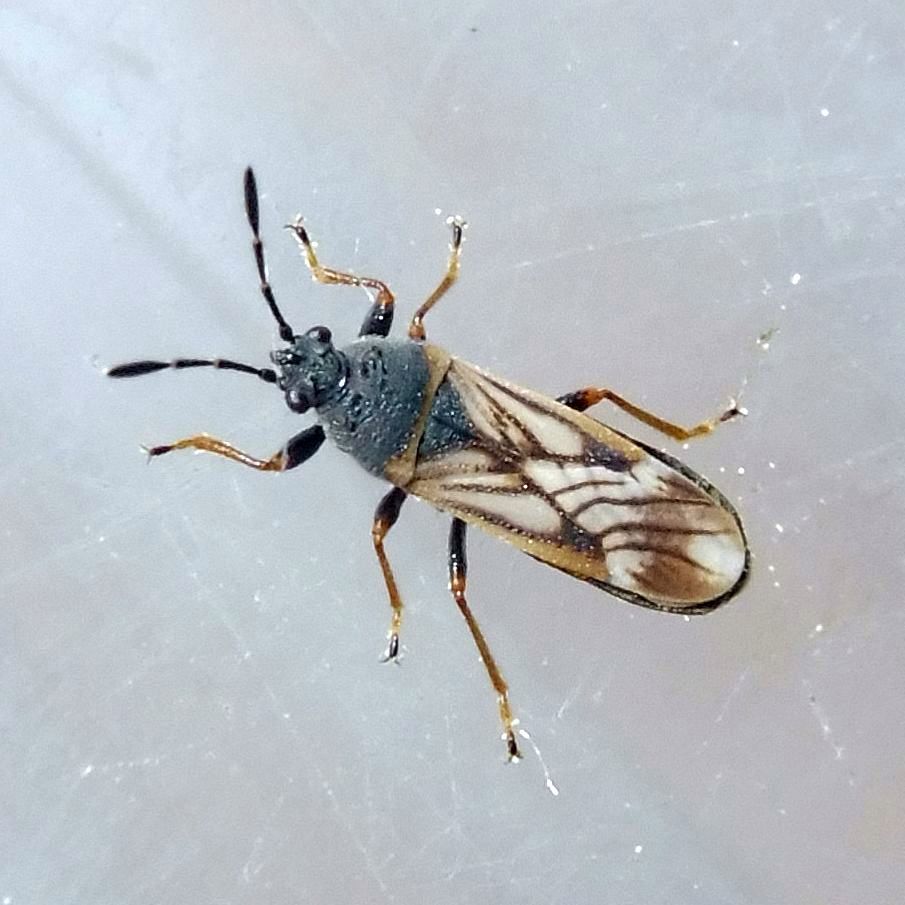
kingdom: Animalia
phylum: Arthropoda
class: Insecta
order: Hemiptera
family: Blissidae
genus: Ischnodemus
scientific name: Ischnodemus sabuleti
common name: European cinchbug
